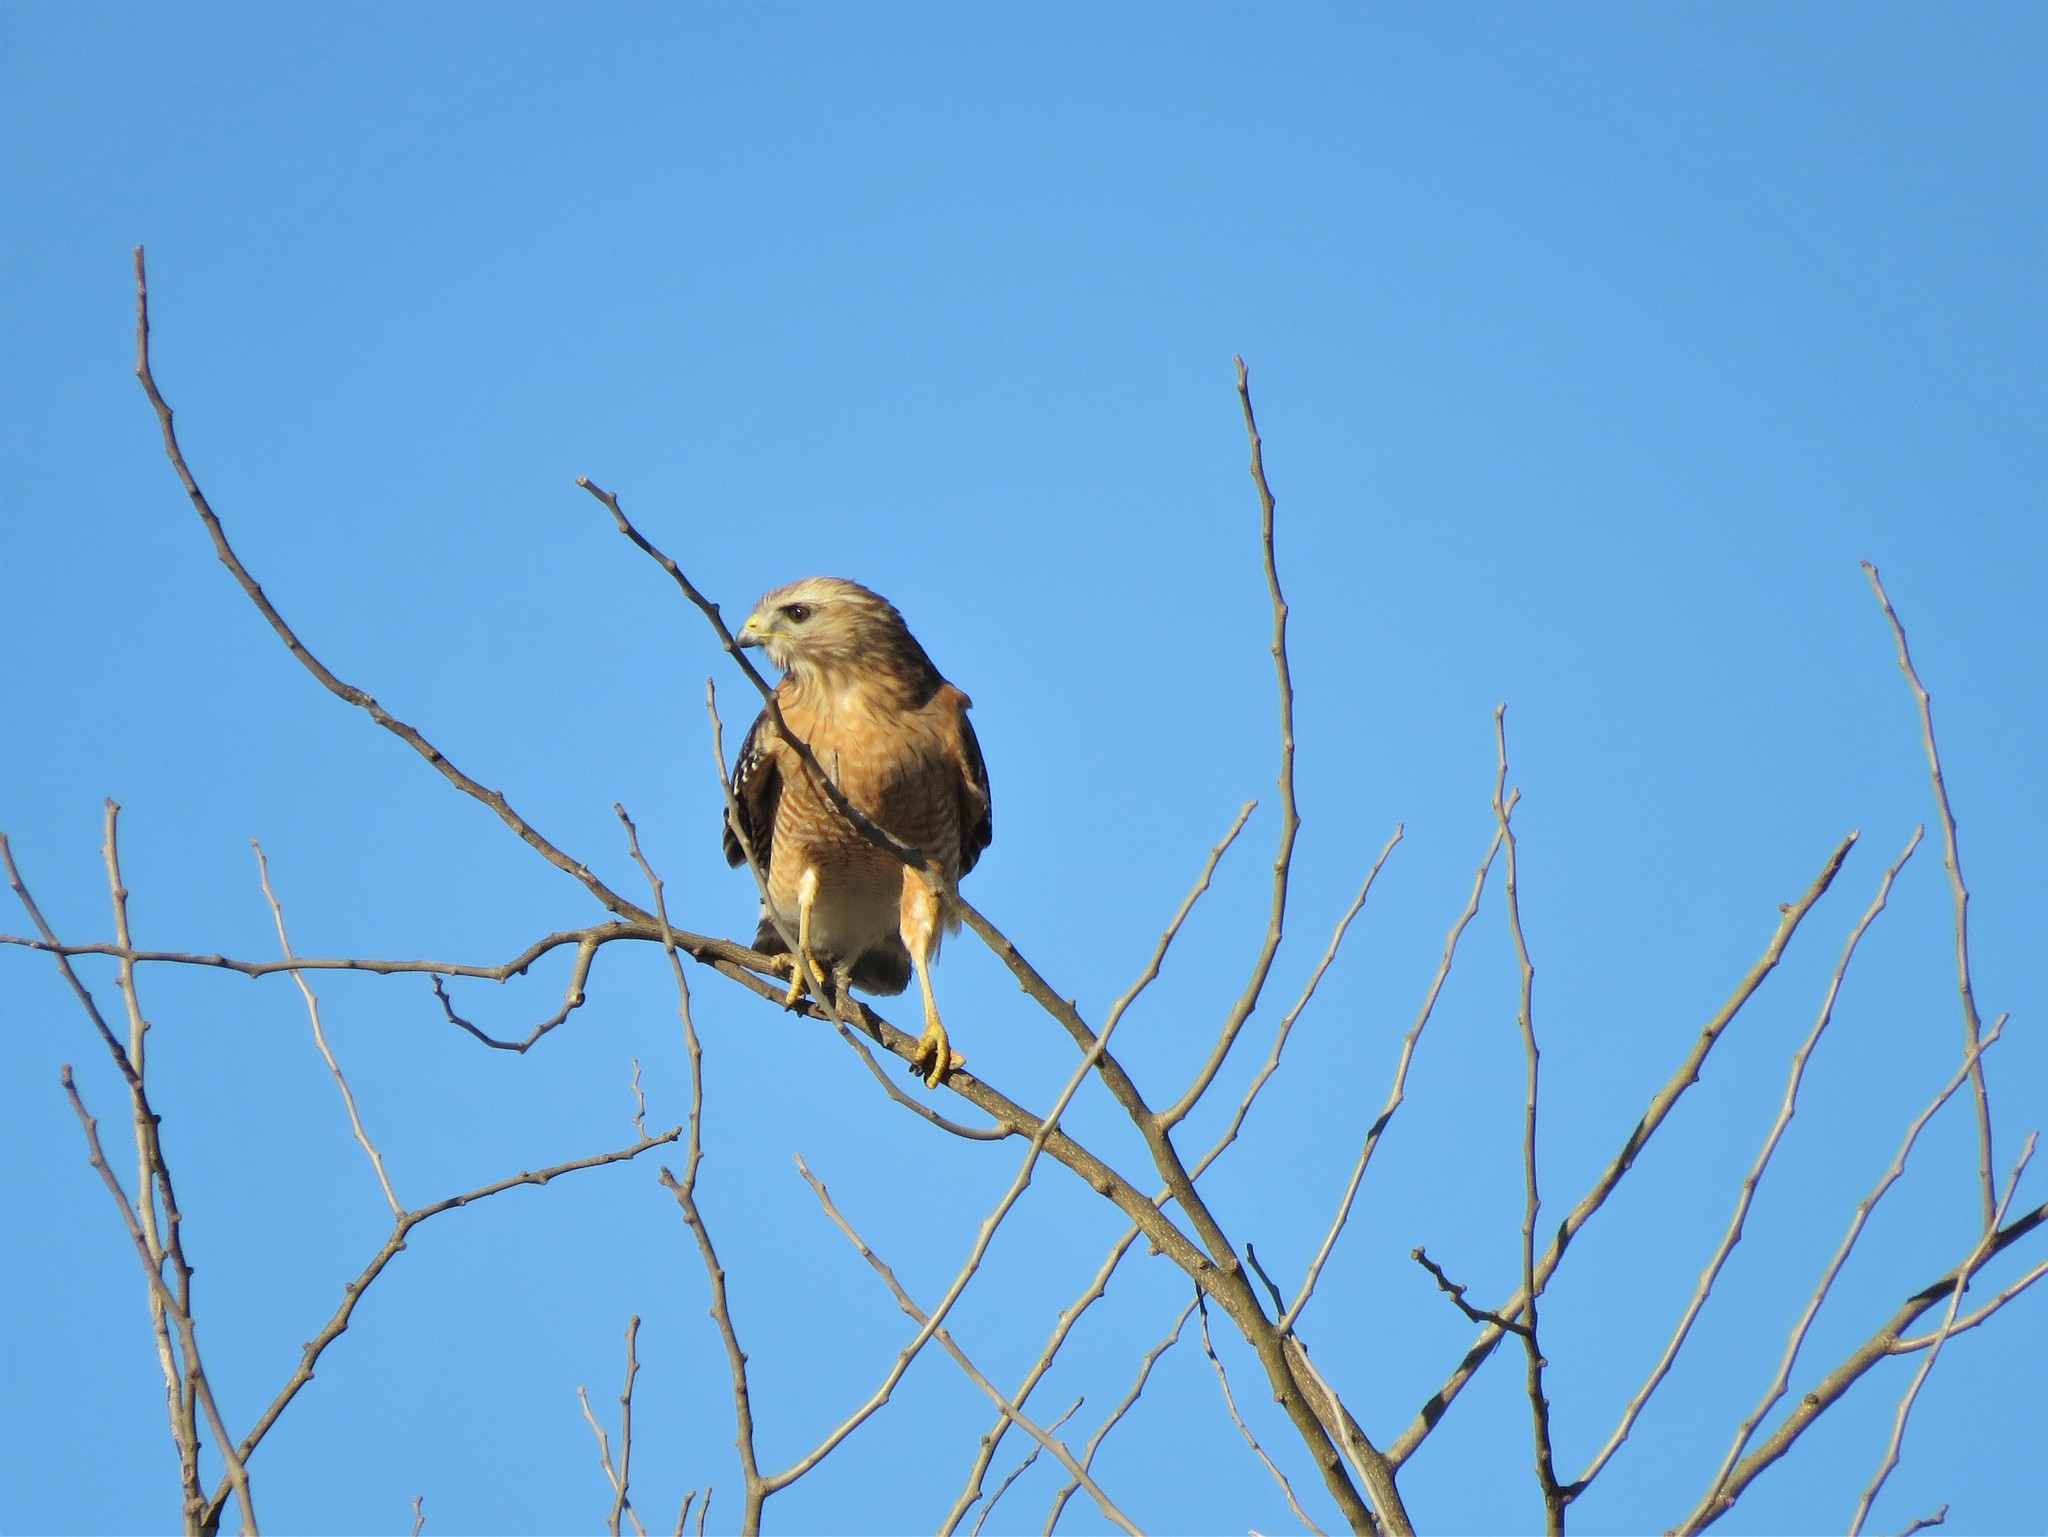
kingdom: Animalia
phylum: Chordata
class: Aves
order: Accipitriformes
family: Accipitridae
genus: Buteo
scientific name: Buteo lineatus
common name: Red-shouldered hawk
